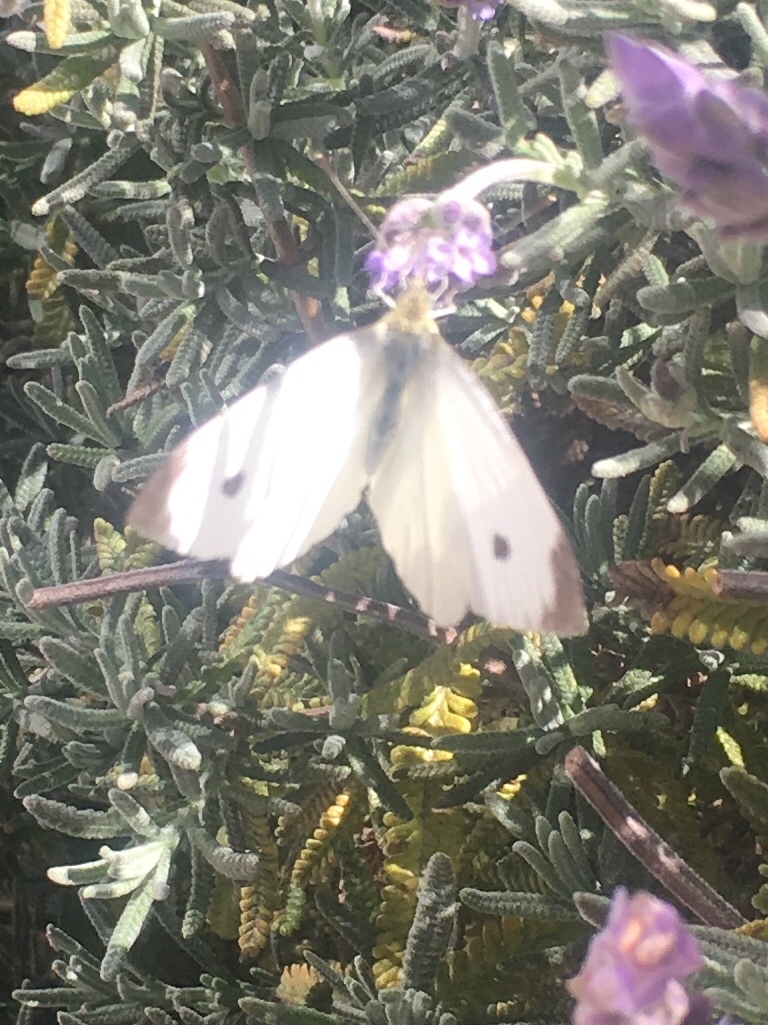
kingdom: Animalia
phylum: Arthropoda
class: Insecta
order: Lepidoptera
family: Pieridae
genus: Pieris
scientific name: Pieris rapae
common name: Small white
